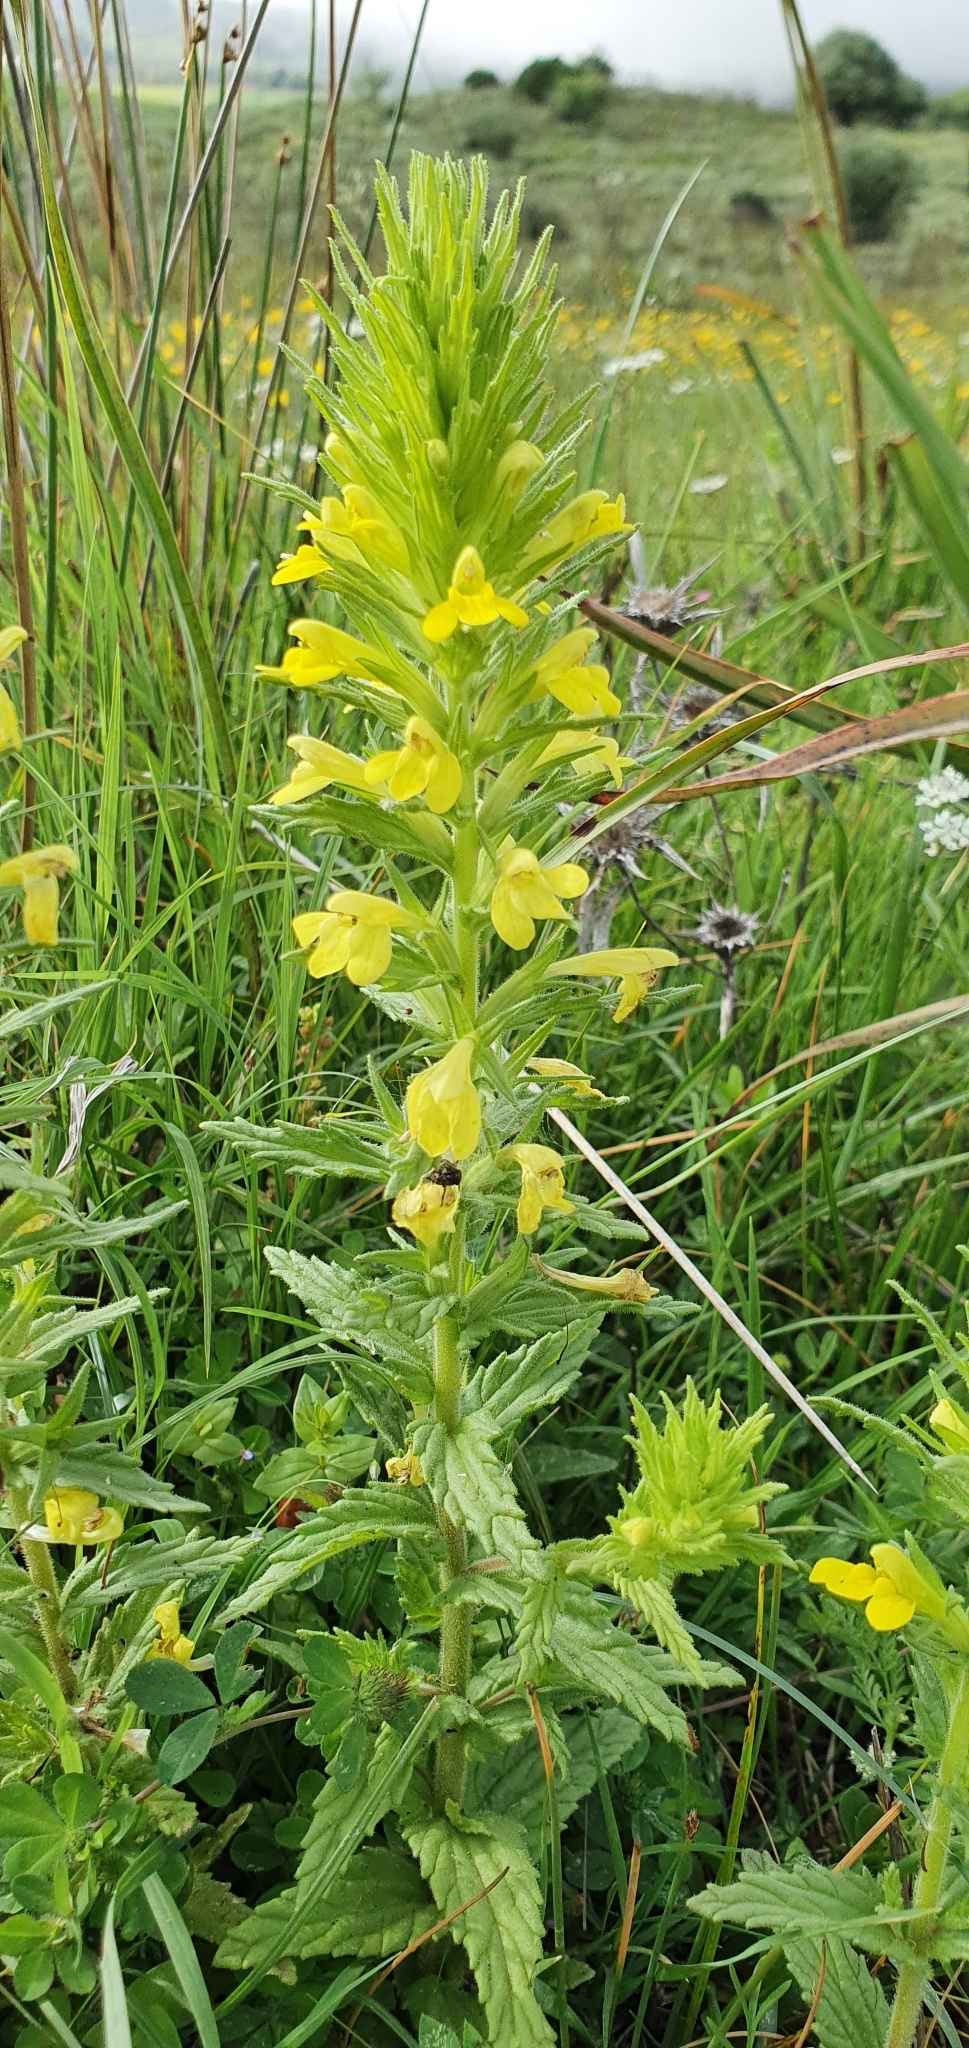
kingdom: Plantae
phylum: Tracheophyta
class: Magnoliopsida
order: Lamiales
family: Orobanchaceae
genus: Bellardia
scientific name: Bellardia viscosa
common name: Sticky parentucellia
